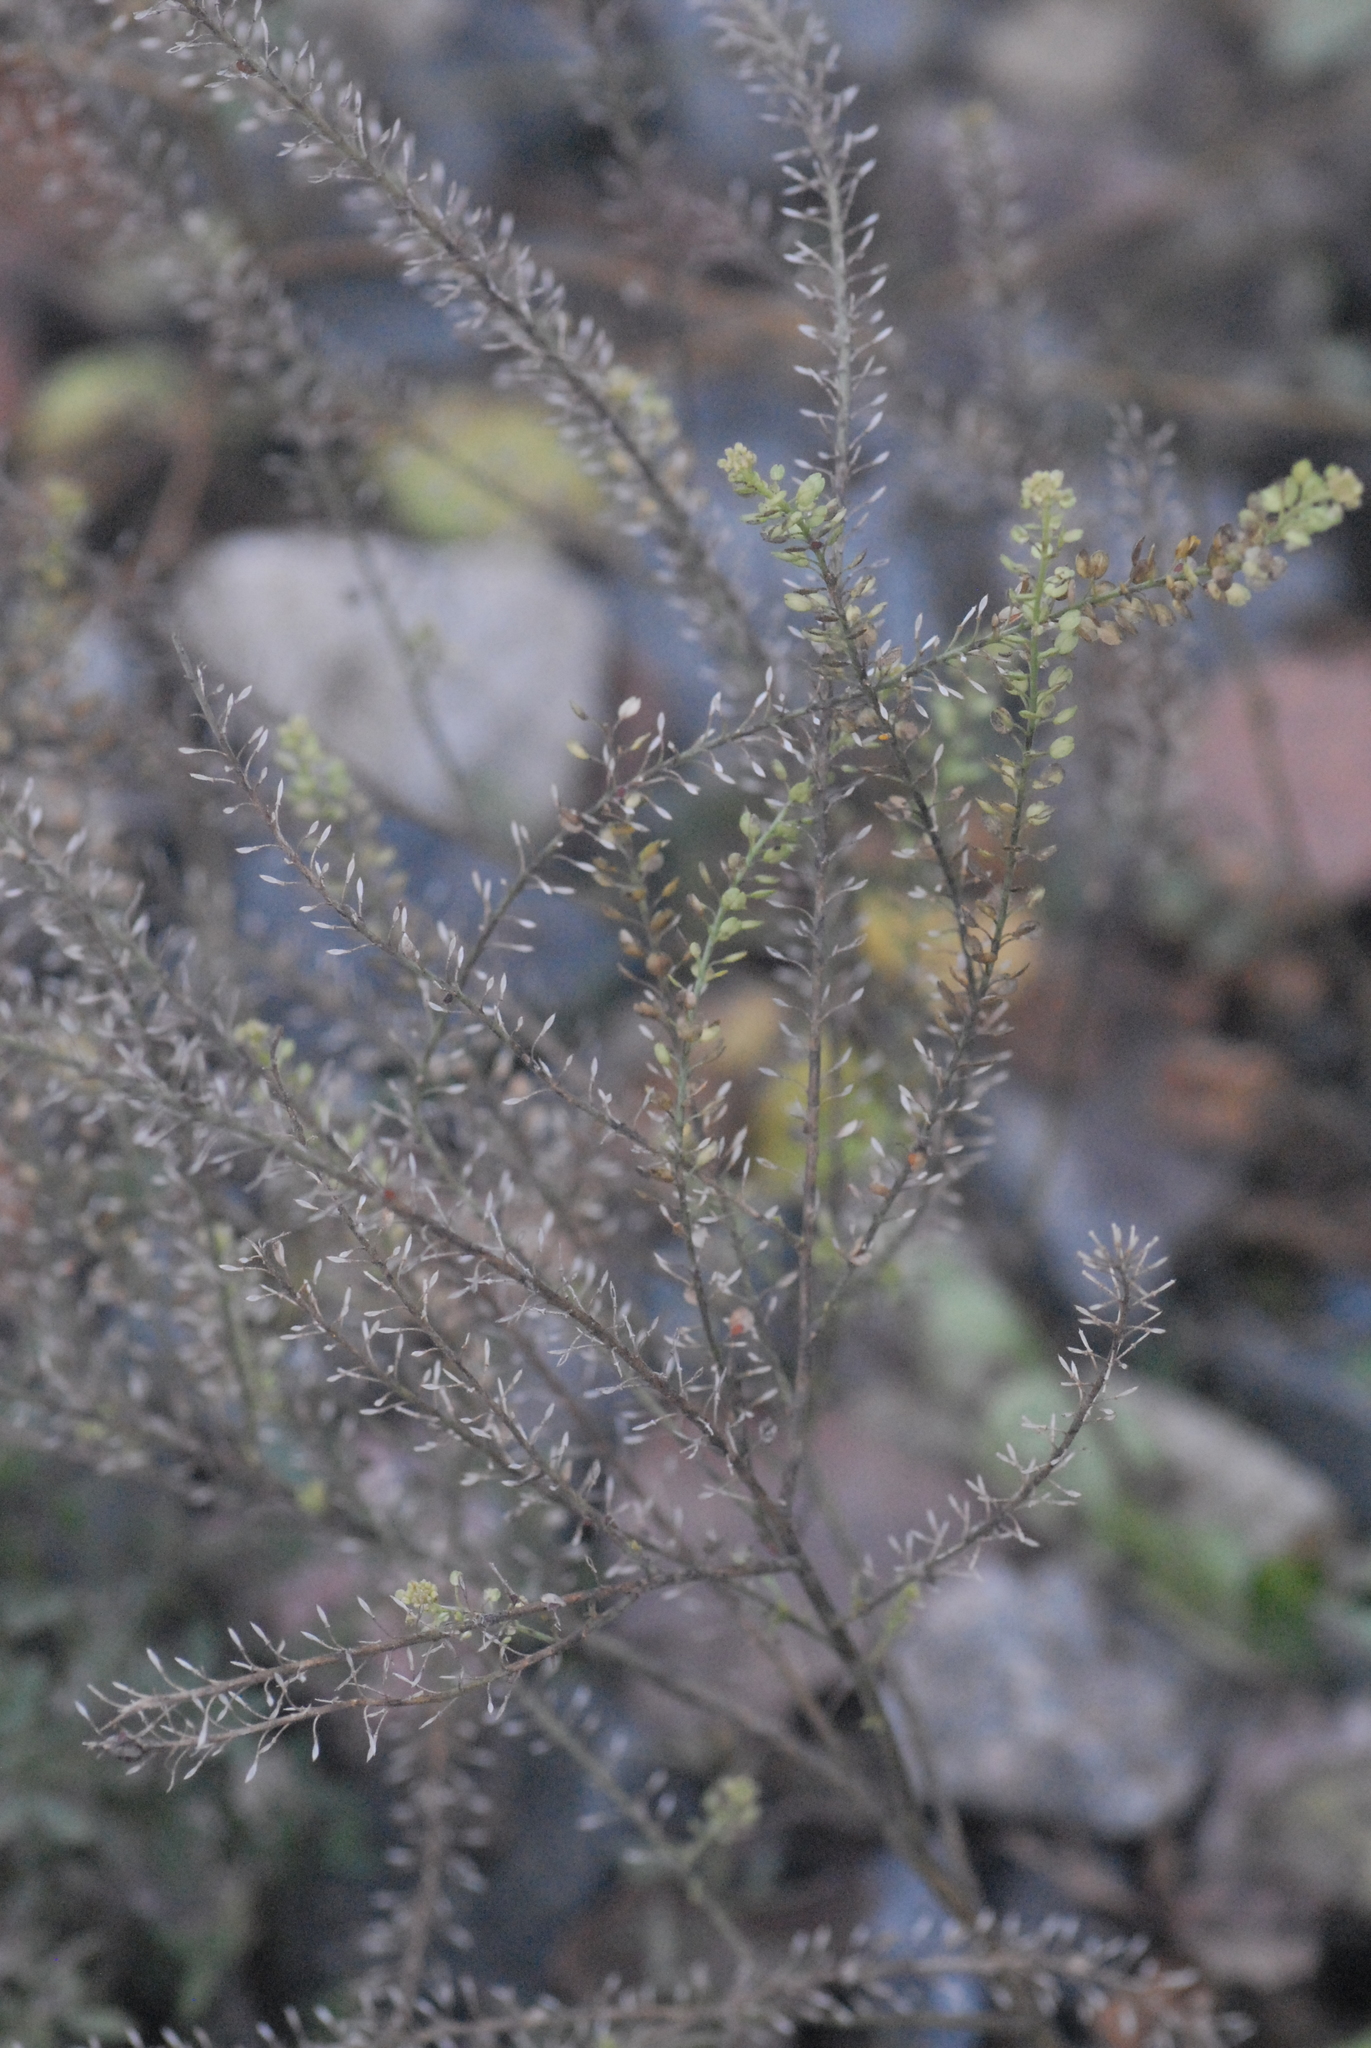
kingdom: Plantae
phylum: Tracheophyta
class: Magnoliopsida
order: Brassicales
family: Brassicaceae
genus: Lepidium
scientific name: Lepidium densiflorum
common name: Miner's pepperwort
